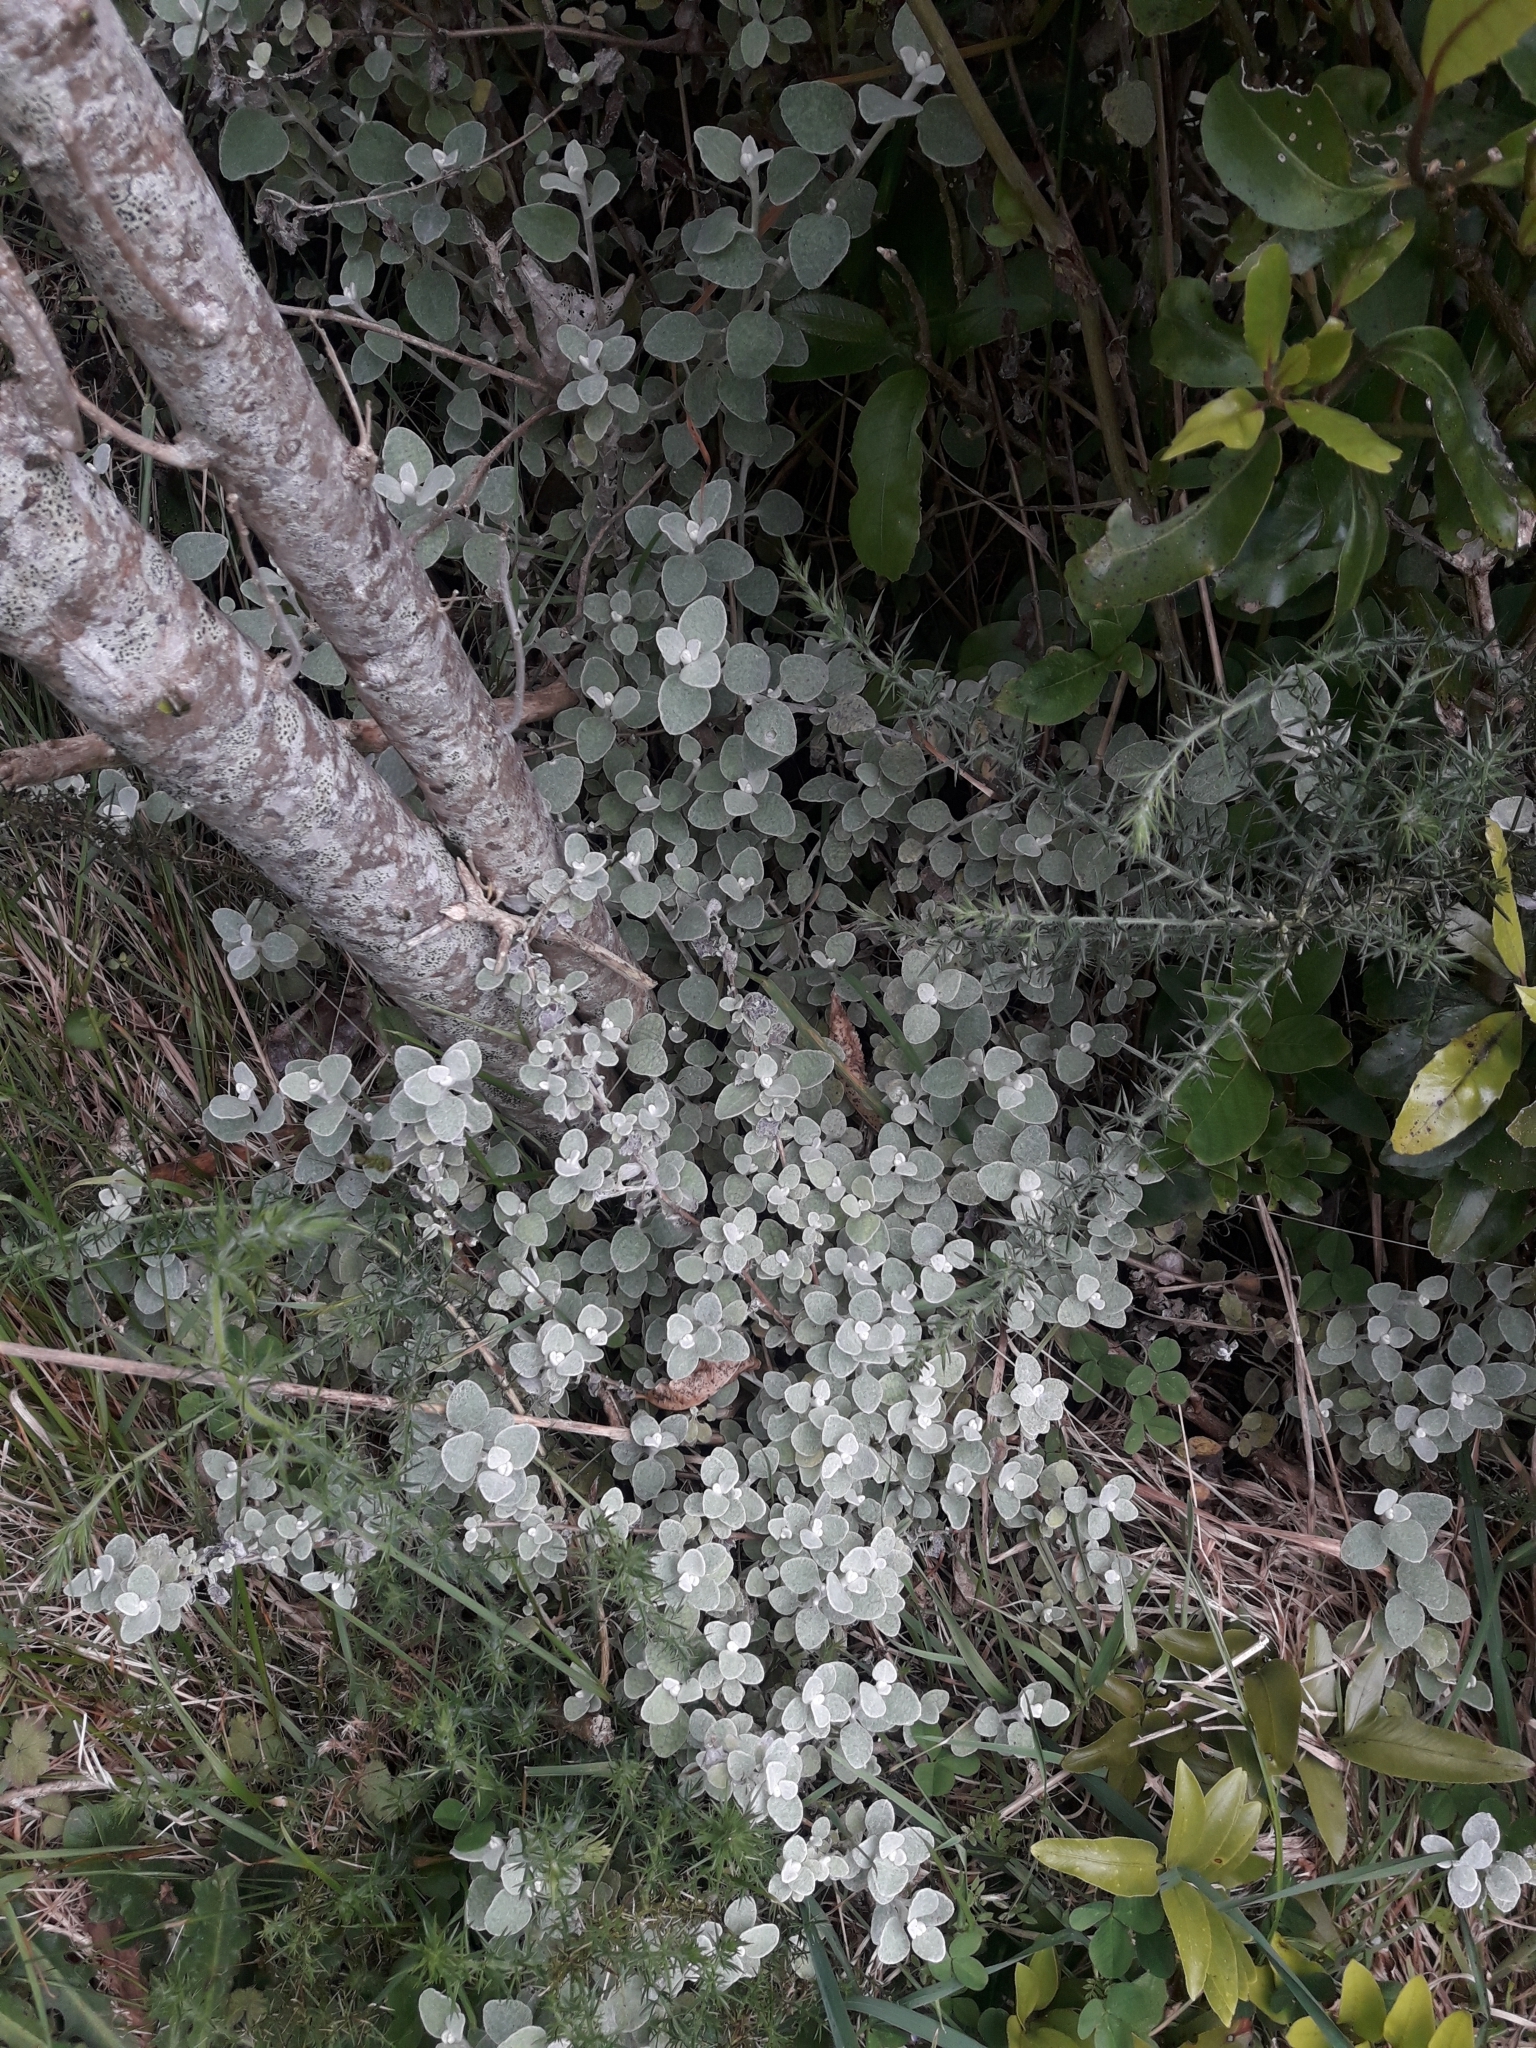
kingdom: Plantae
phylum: Tracheophyta
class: Magnoliopsida
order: Asterales
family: Asteraceae
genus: Helichrysum
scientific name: Helichrysum petiolare
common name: Licorice-plant
